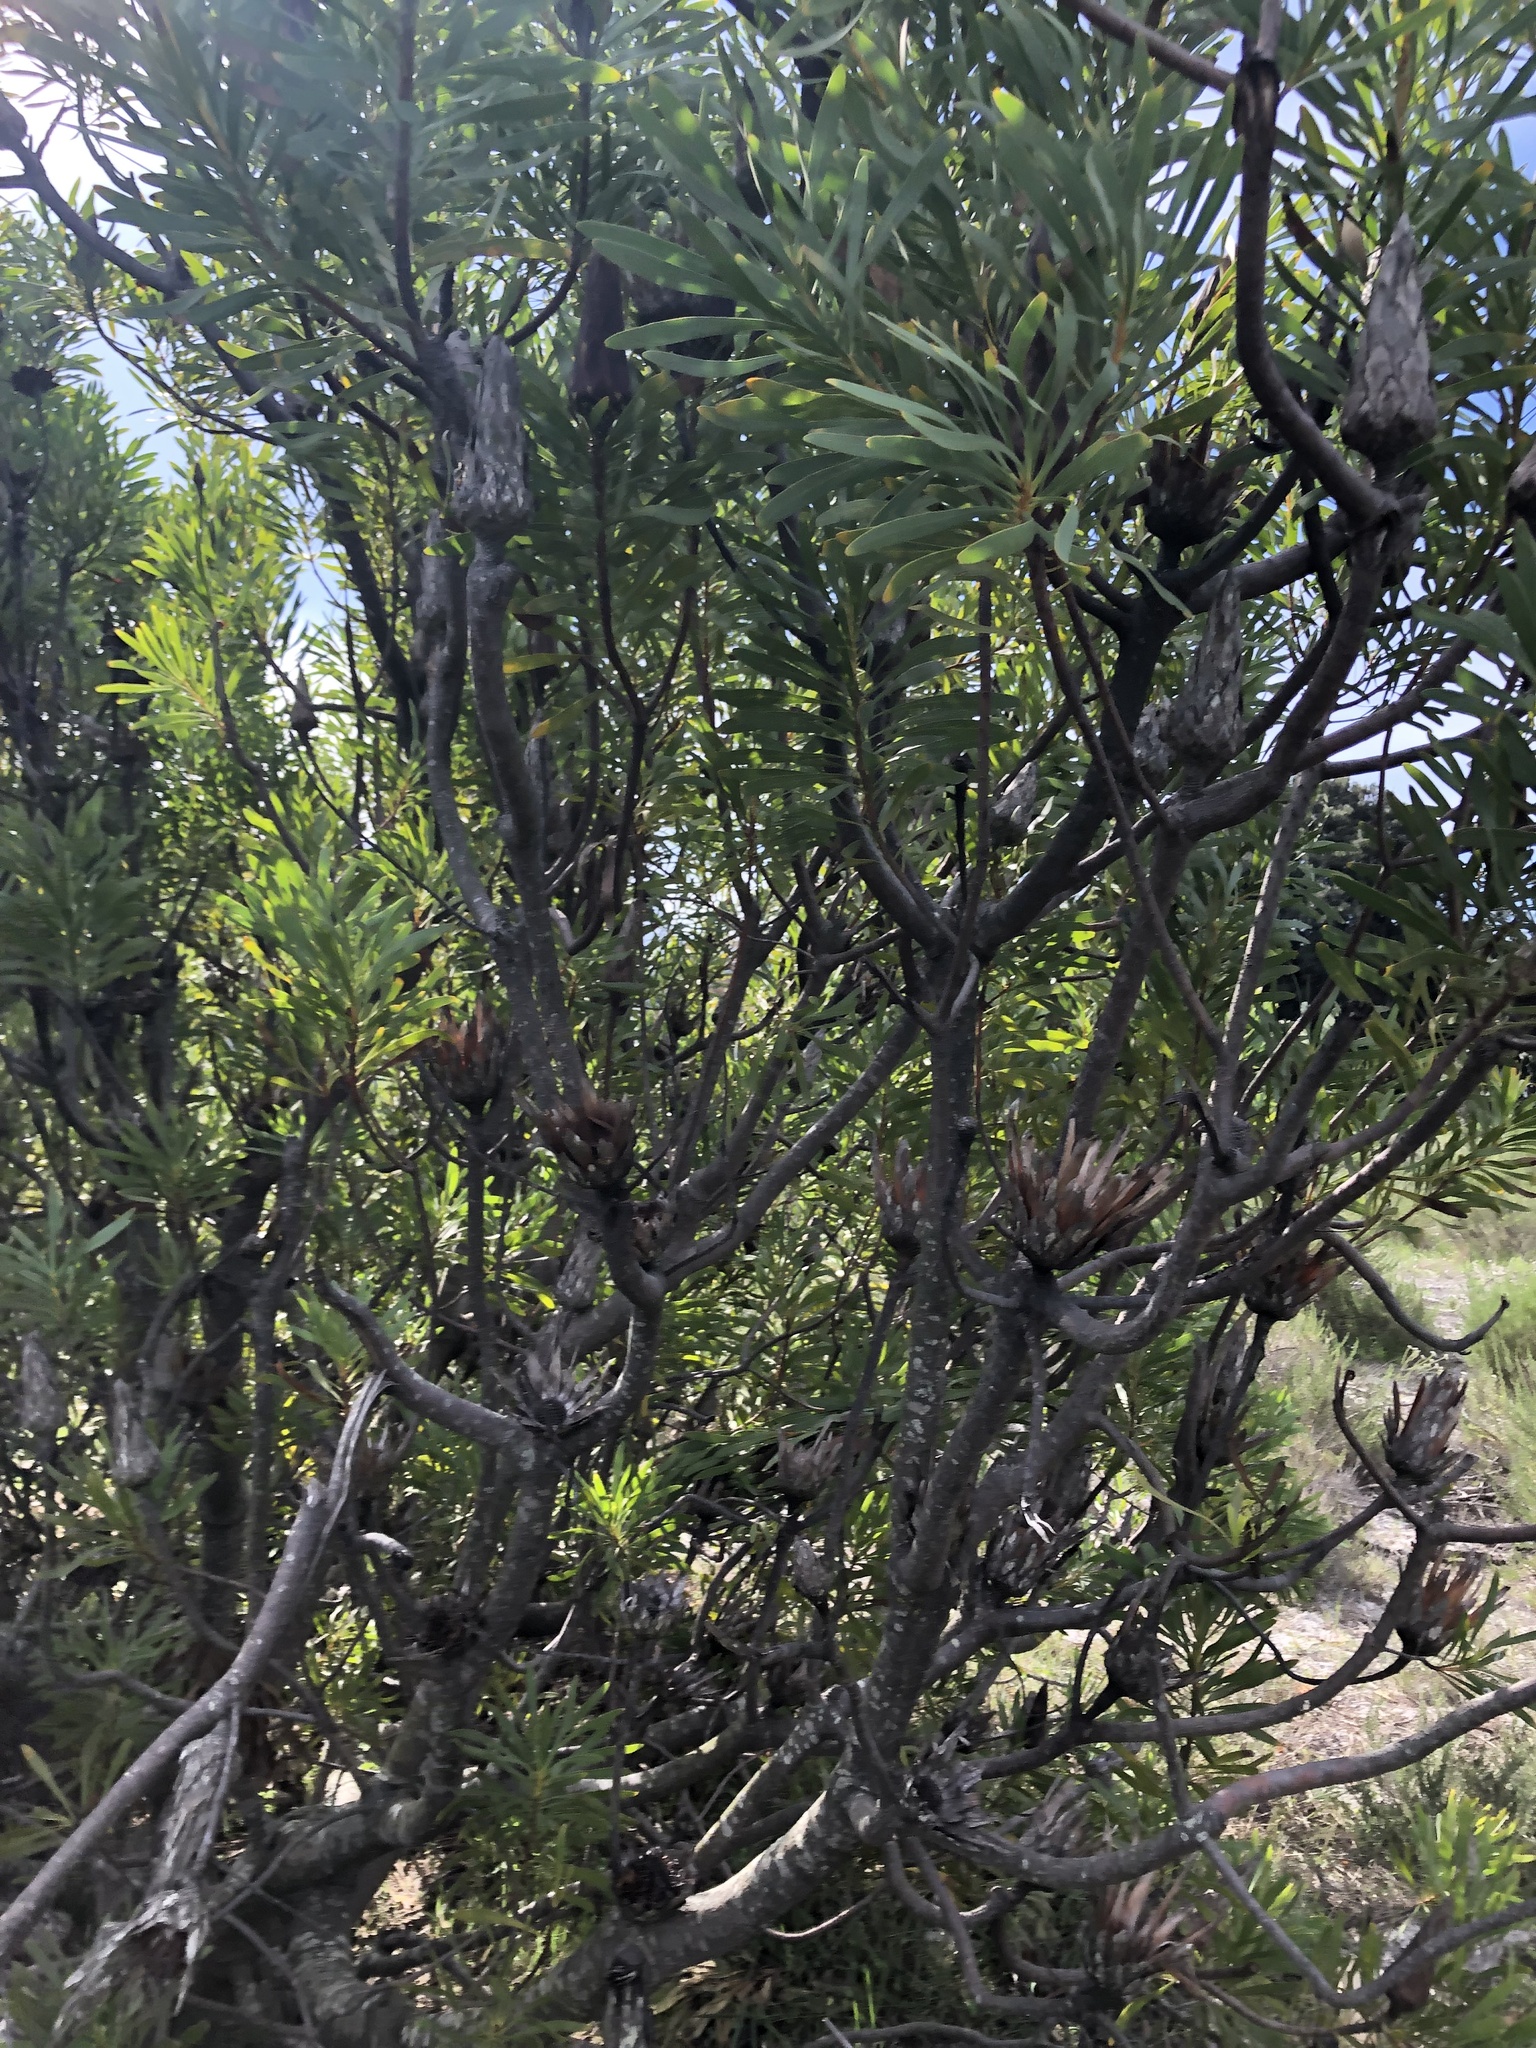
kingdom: Plantae
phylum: Tracheophyta
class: Magnoliopsida
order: Proteales
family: Proteaceae
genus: Protea
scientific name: Protea repens
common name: Sugarbush
